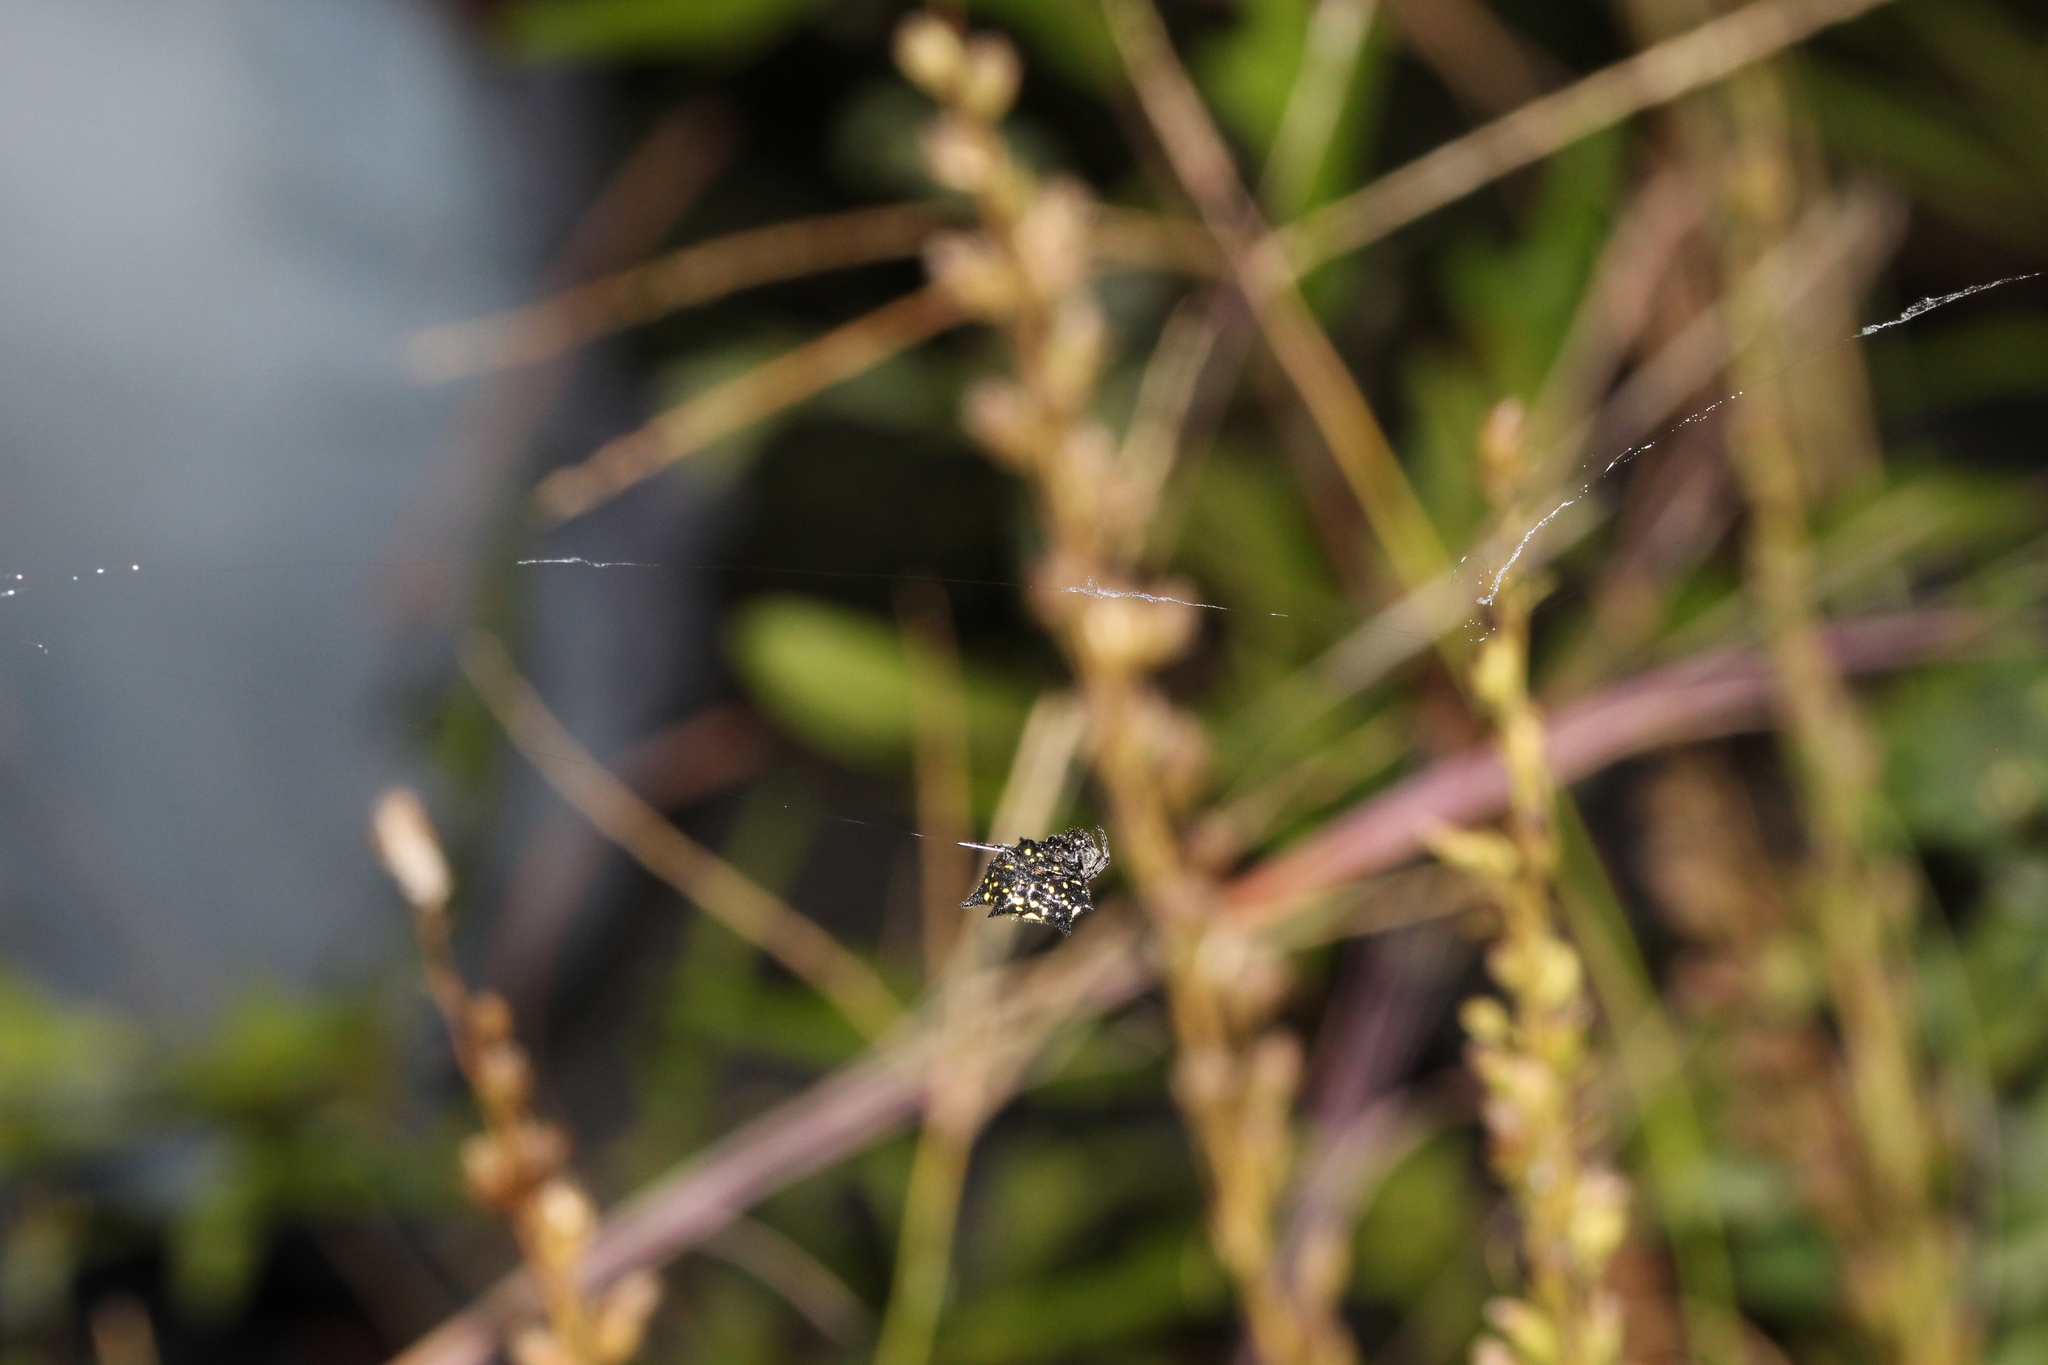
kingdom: Animalia
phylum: Arthropoda
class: Arachnida
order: Araneae
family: Araneidae
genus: Gasteracantha
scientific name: Gasteracantha cancriformis
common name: Orb weavers
